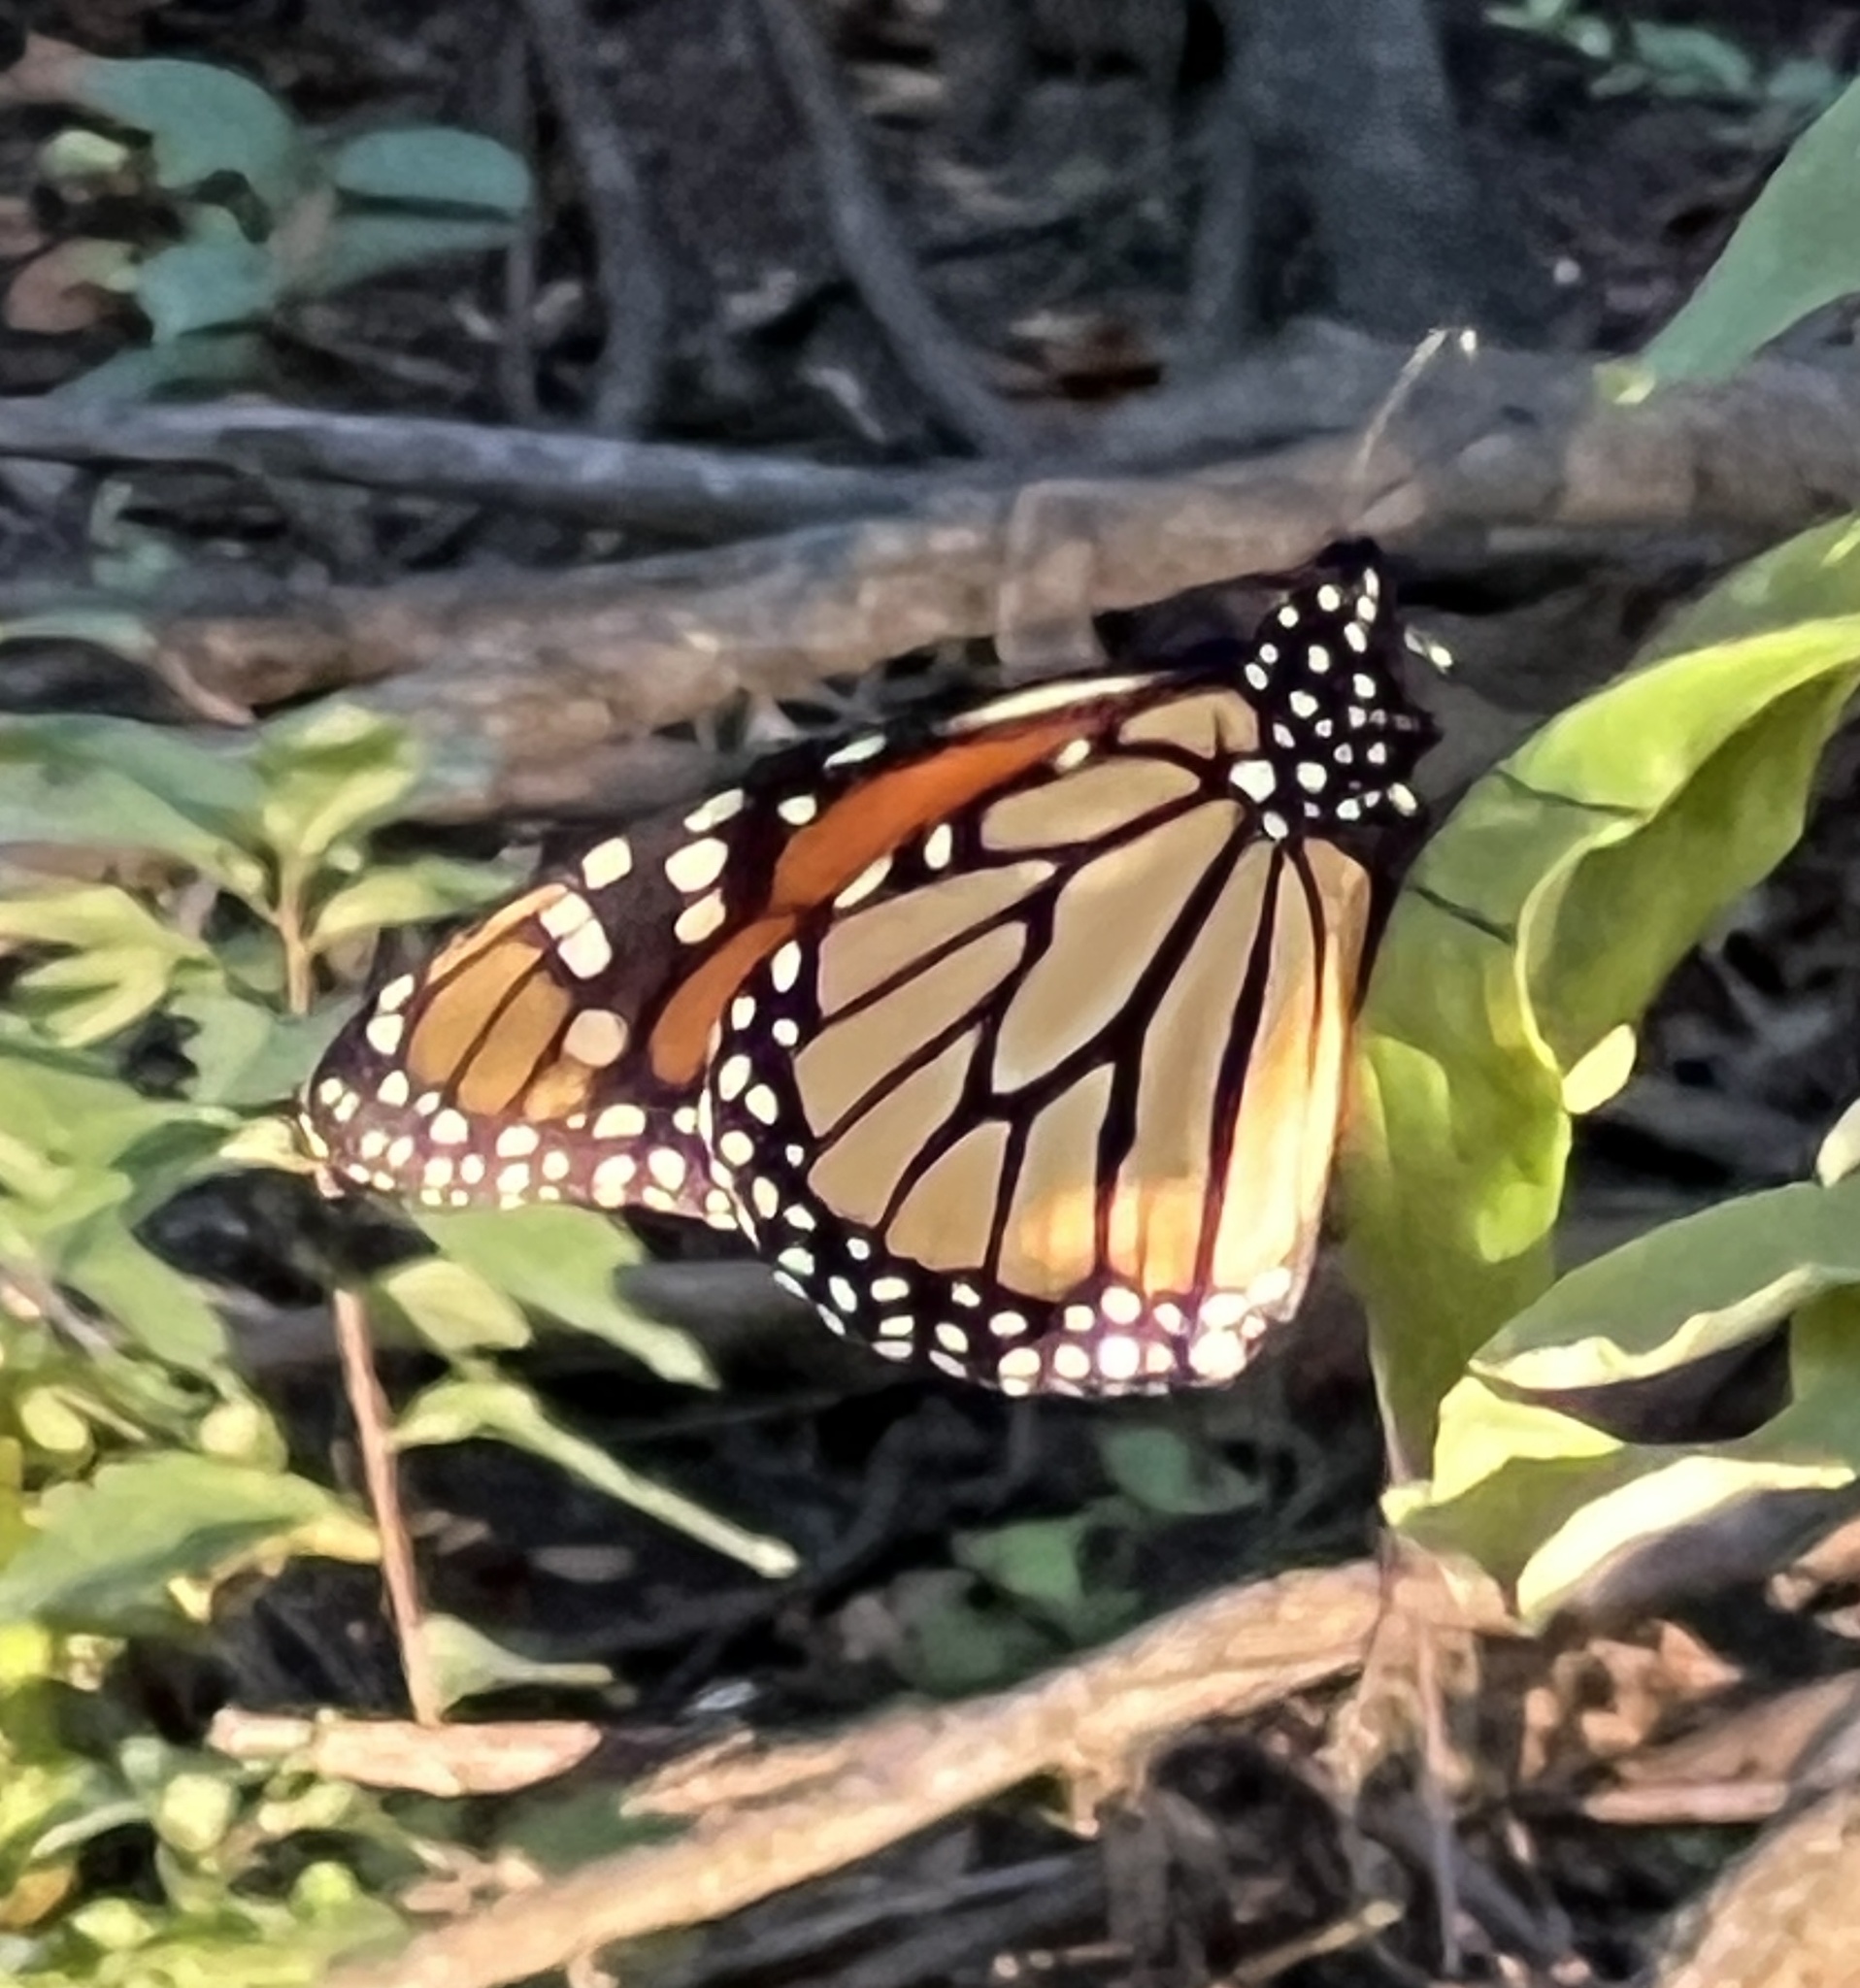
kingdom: Animalia
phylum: Arthropoda
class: Insecta
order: Lepidoptera
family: Nymphalidae
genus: Danaus
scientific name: Danaus plexippus
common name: Monarch
